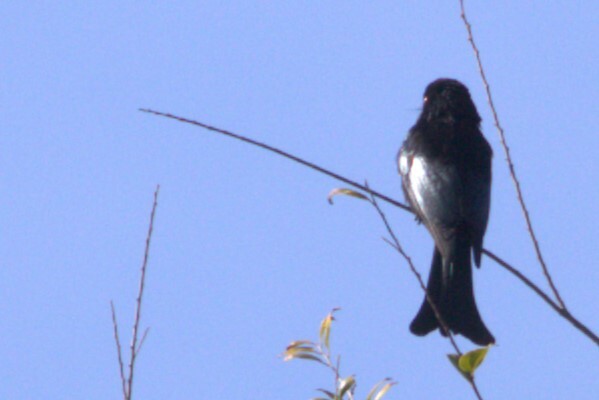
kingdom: Animalia
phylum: Chordata
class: Aves
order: Passeriformes
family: Dicruridae
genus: Dicrurus
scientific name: Dicrurus bracteatus
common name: Spangled drongo
